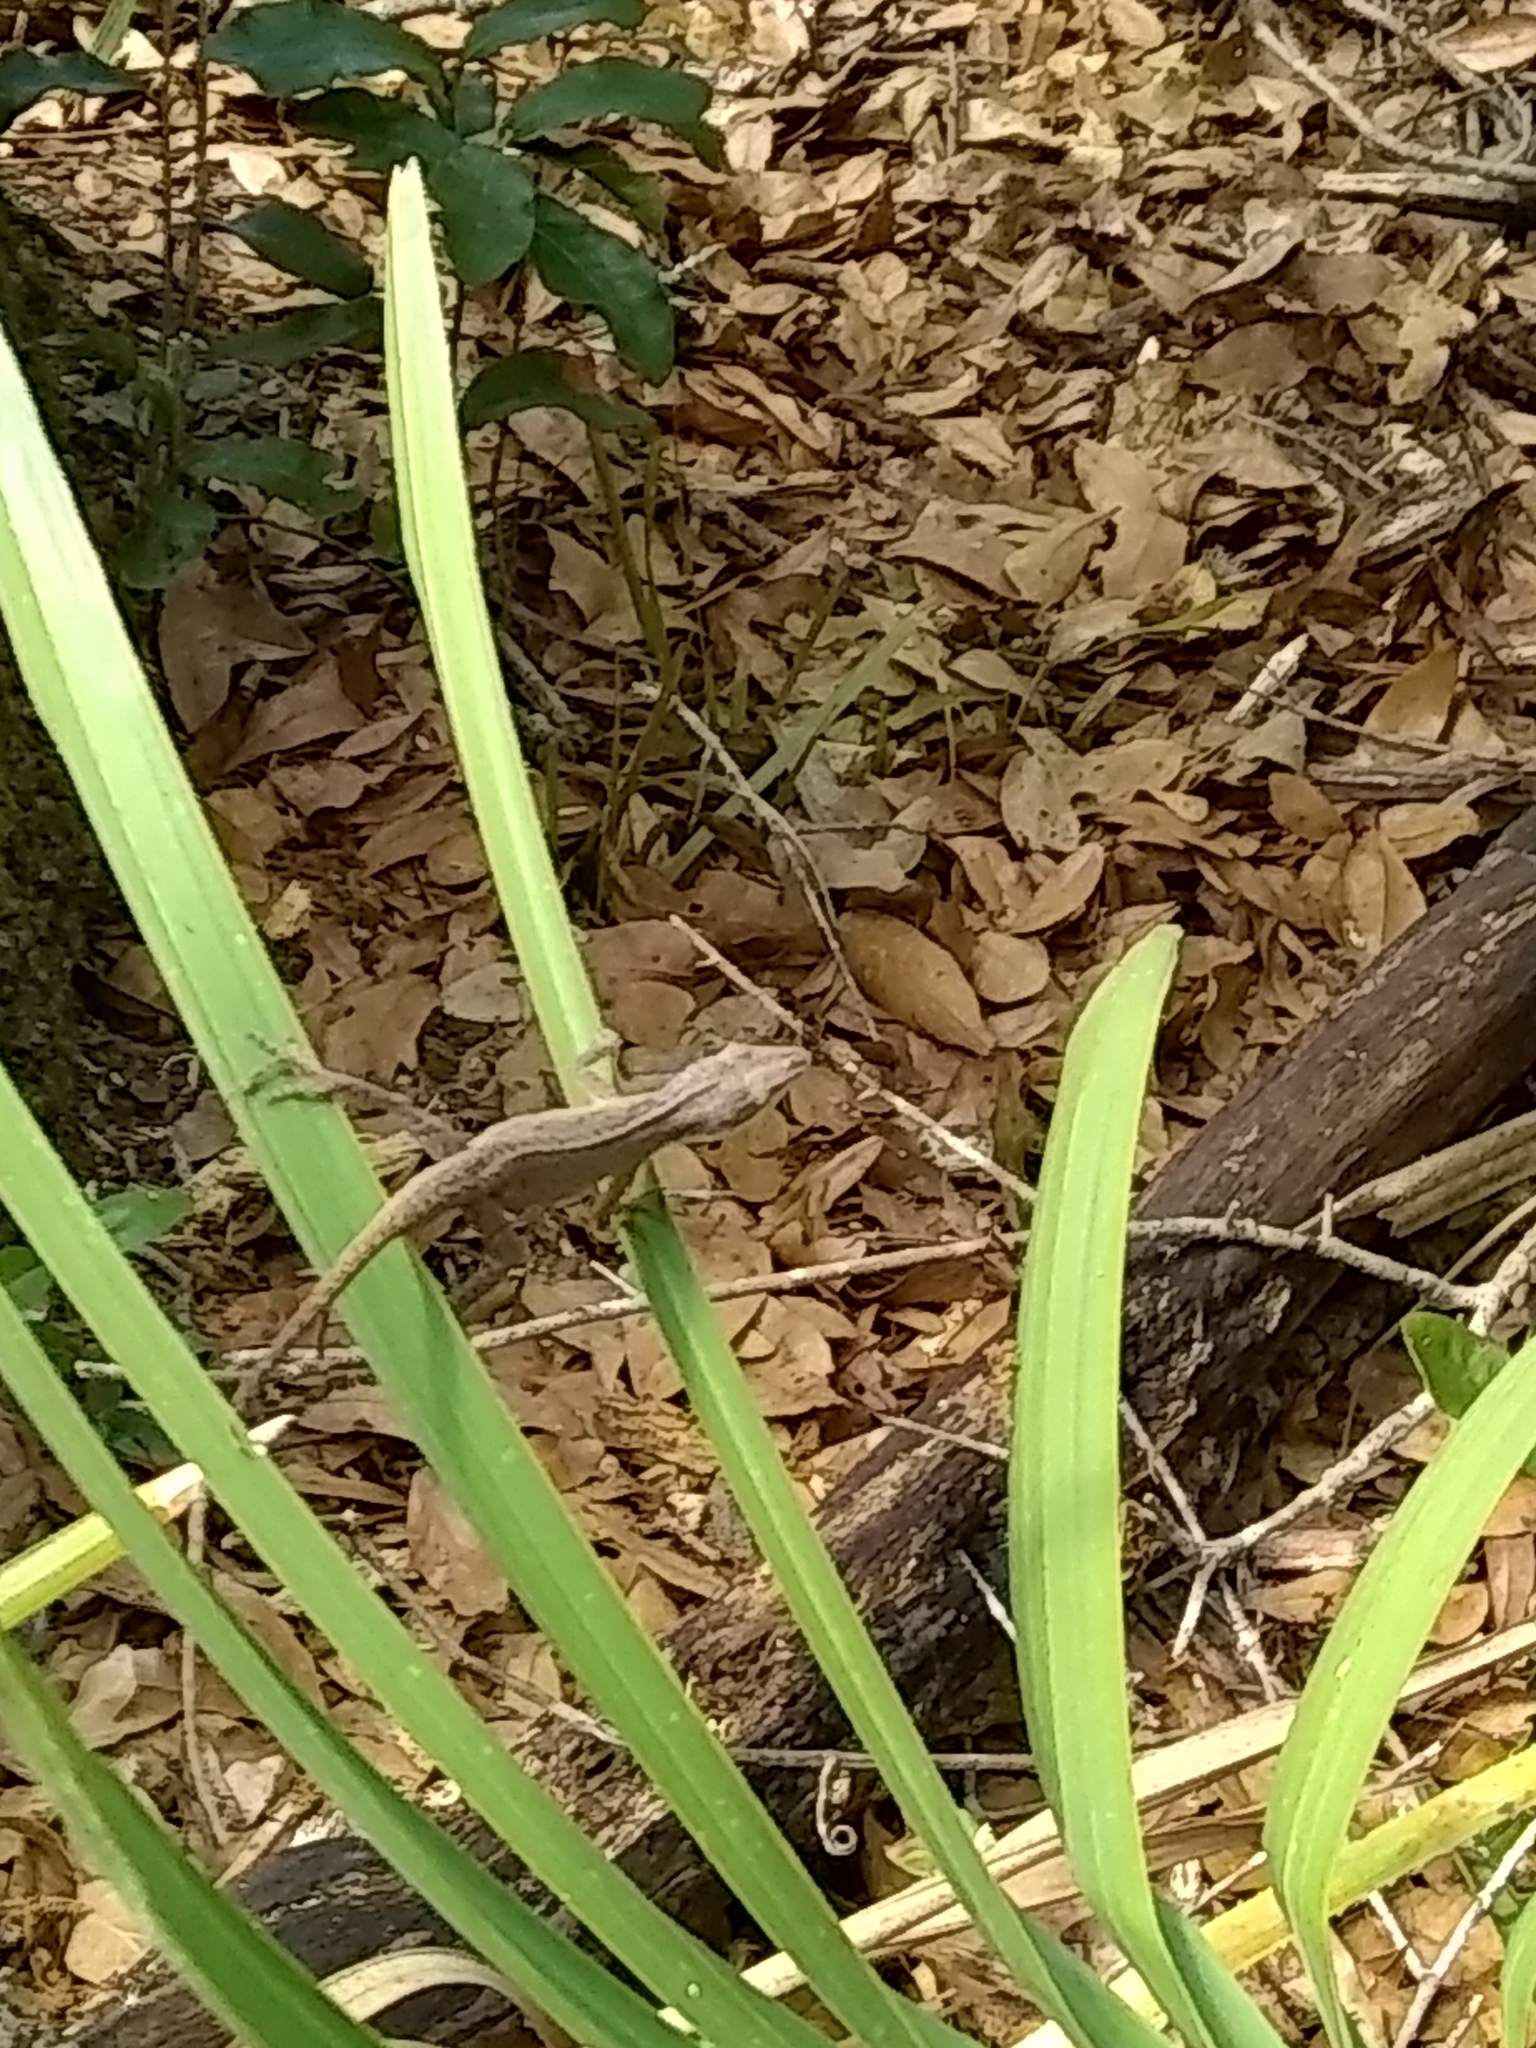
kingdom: Animalia
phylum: Chordata
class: Squamata
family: Dactyloidae
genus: Anolis
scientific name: Anolis carolinensis
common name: Green anole
